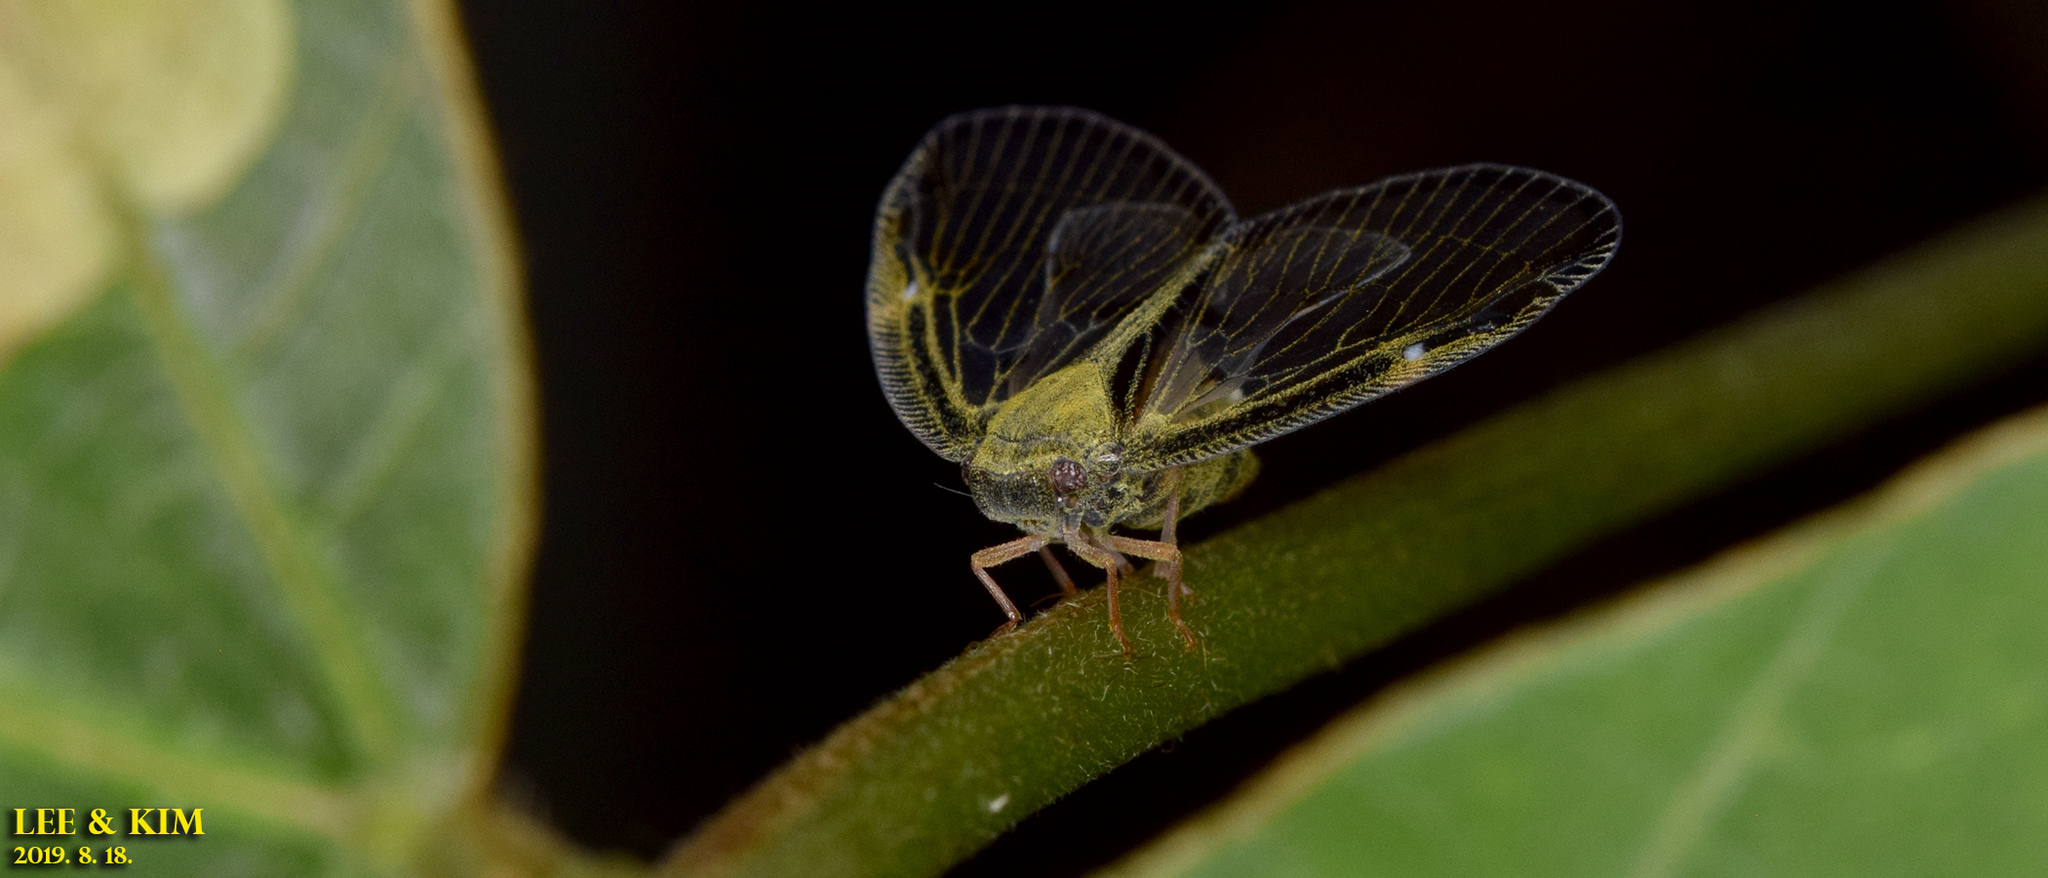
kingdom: Animalia
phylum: Arthropoda
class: Insecta
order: Hemiptera
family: Ricaniidae
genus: Euricania
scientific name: Euricania clara
